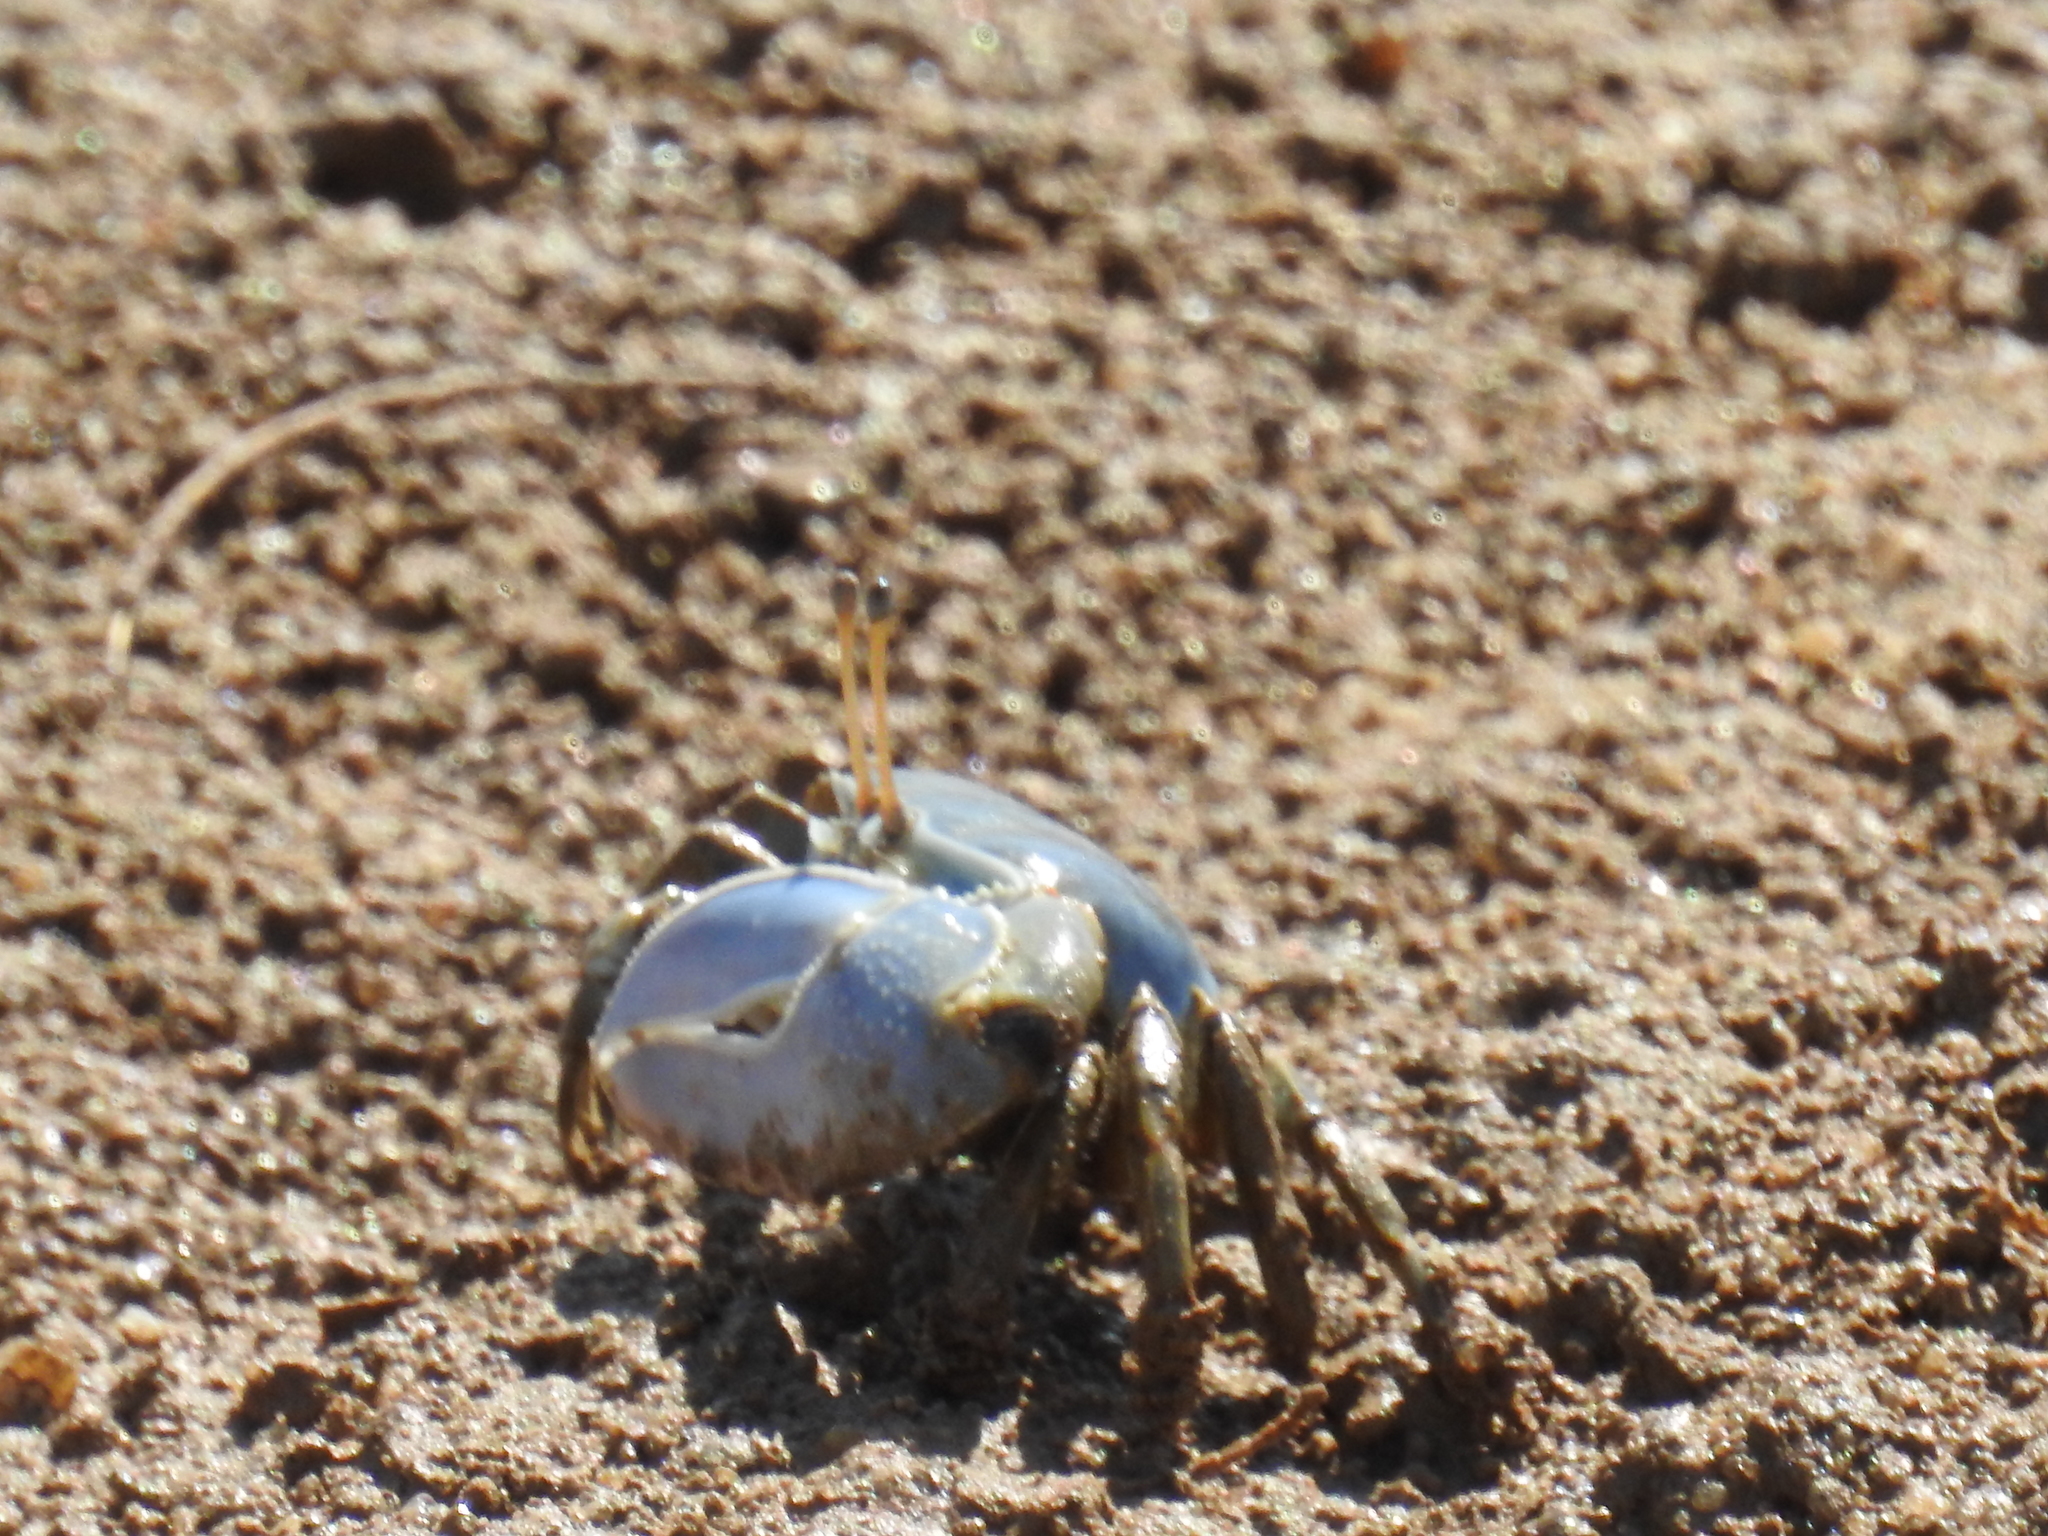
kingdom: Animalia
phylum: Arthropoda
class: Malacostraca
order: Decapoda
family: Ocypodidae
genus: Uca
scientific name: Uca monilifera
